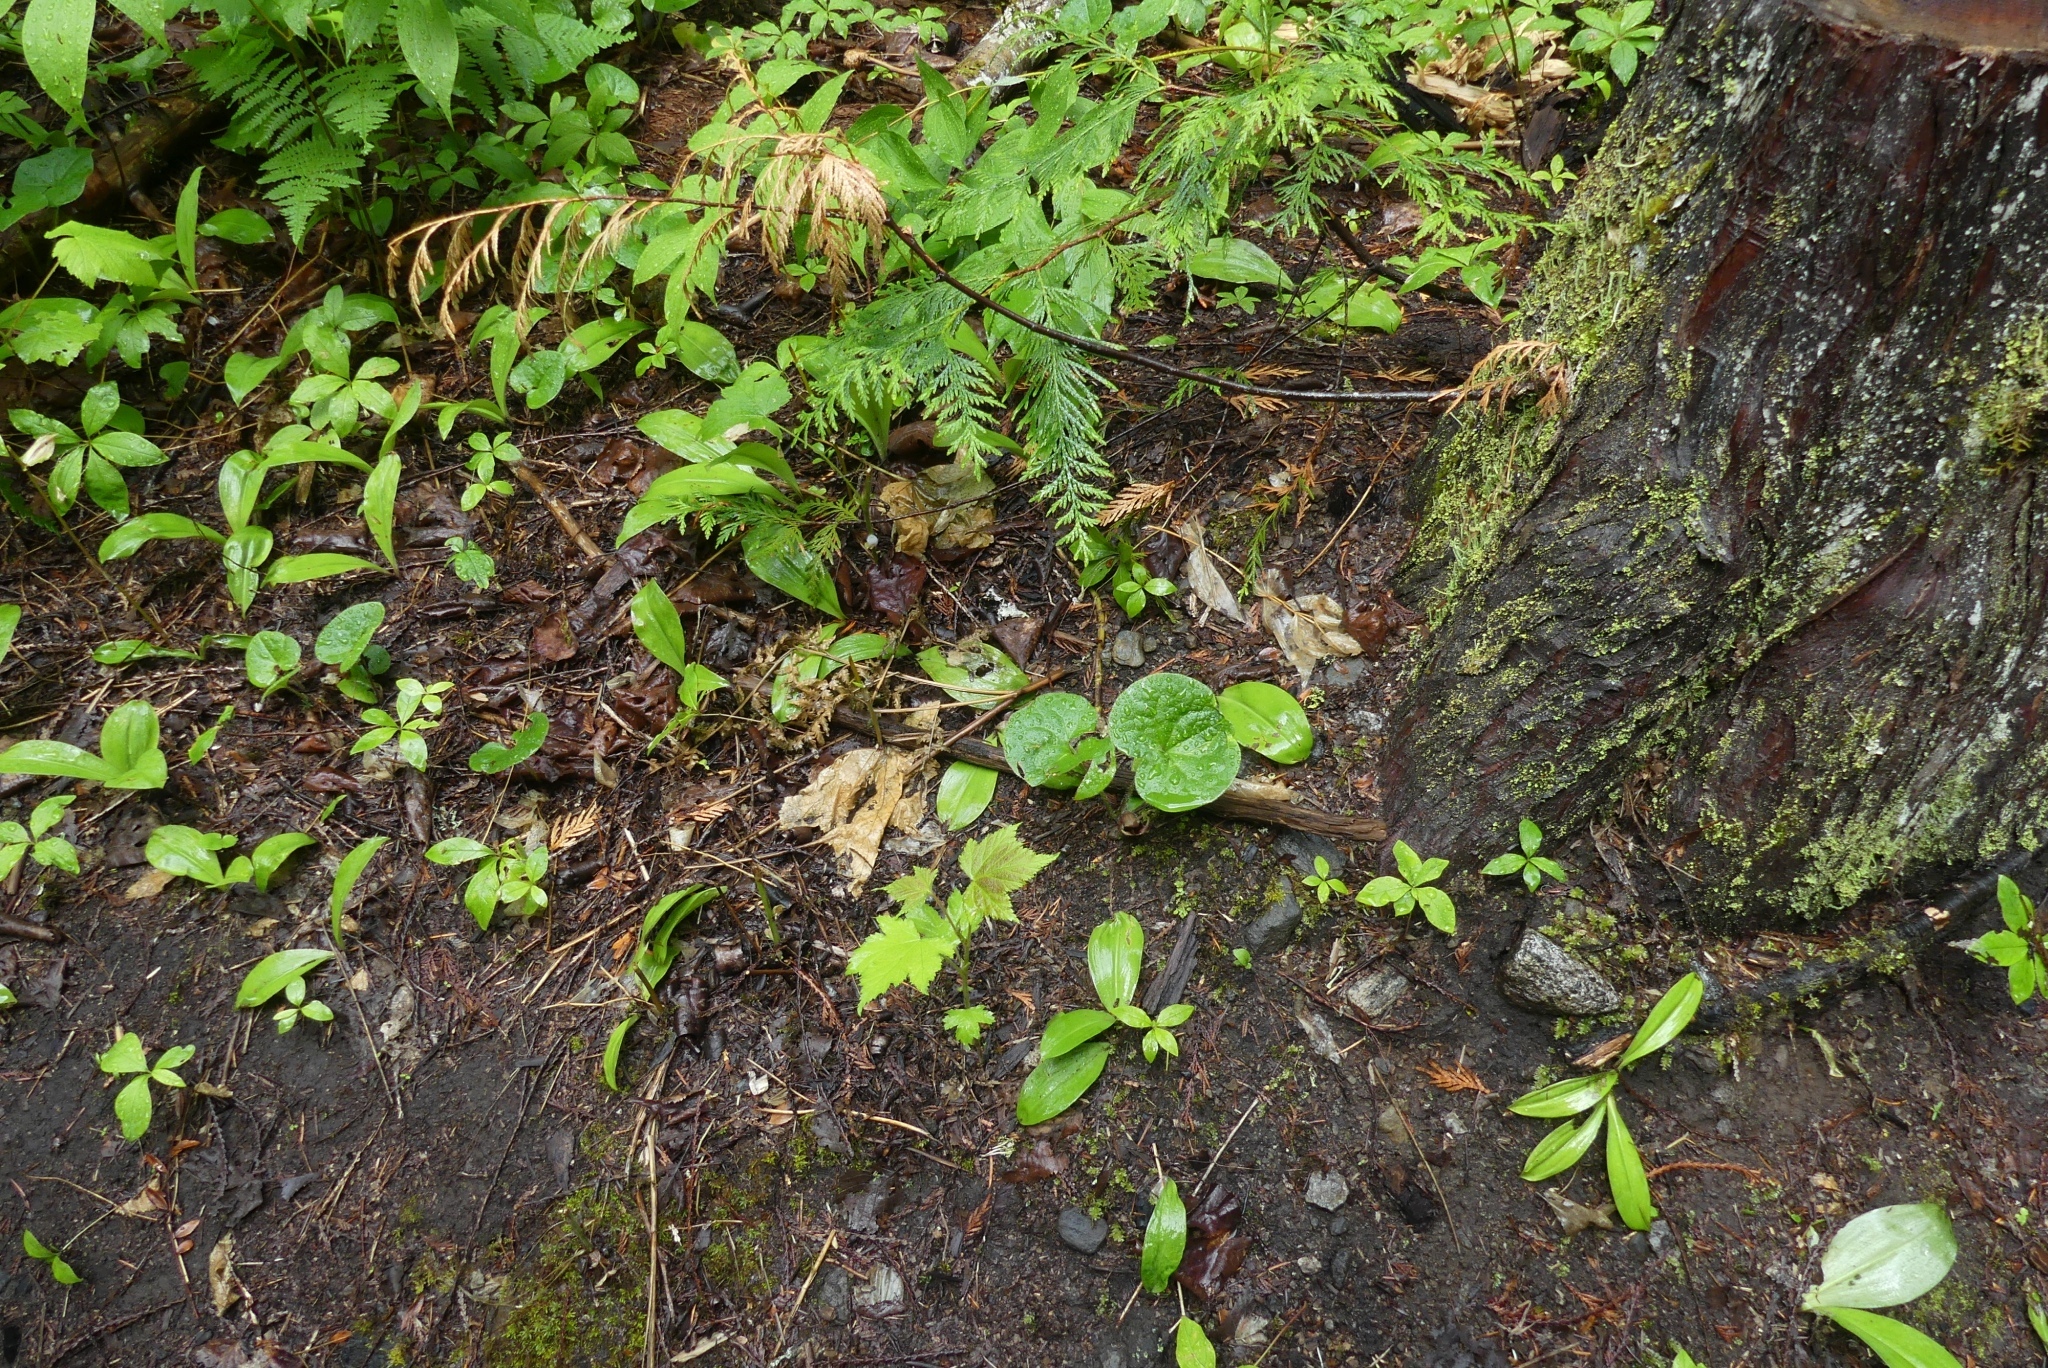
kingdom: Plantae
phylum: Tracheophyta
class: Magnoliopsida
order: Piperales
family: Aristolochiaceae
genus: Asarum
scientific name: Asarum caudatum
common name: Wild ginger
